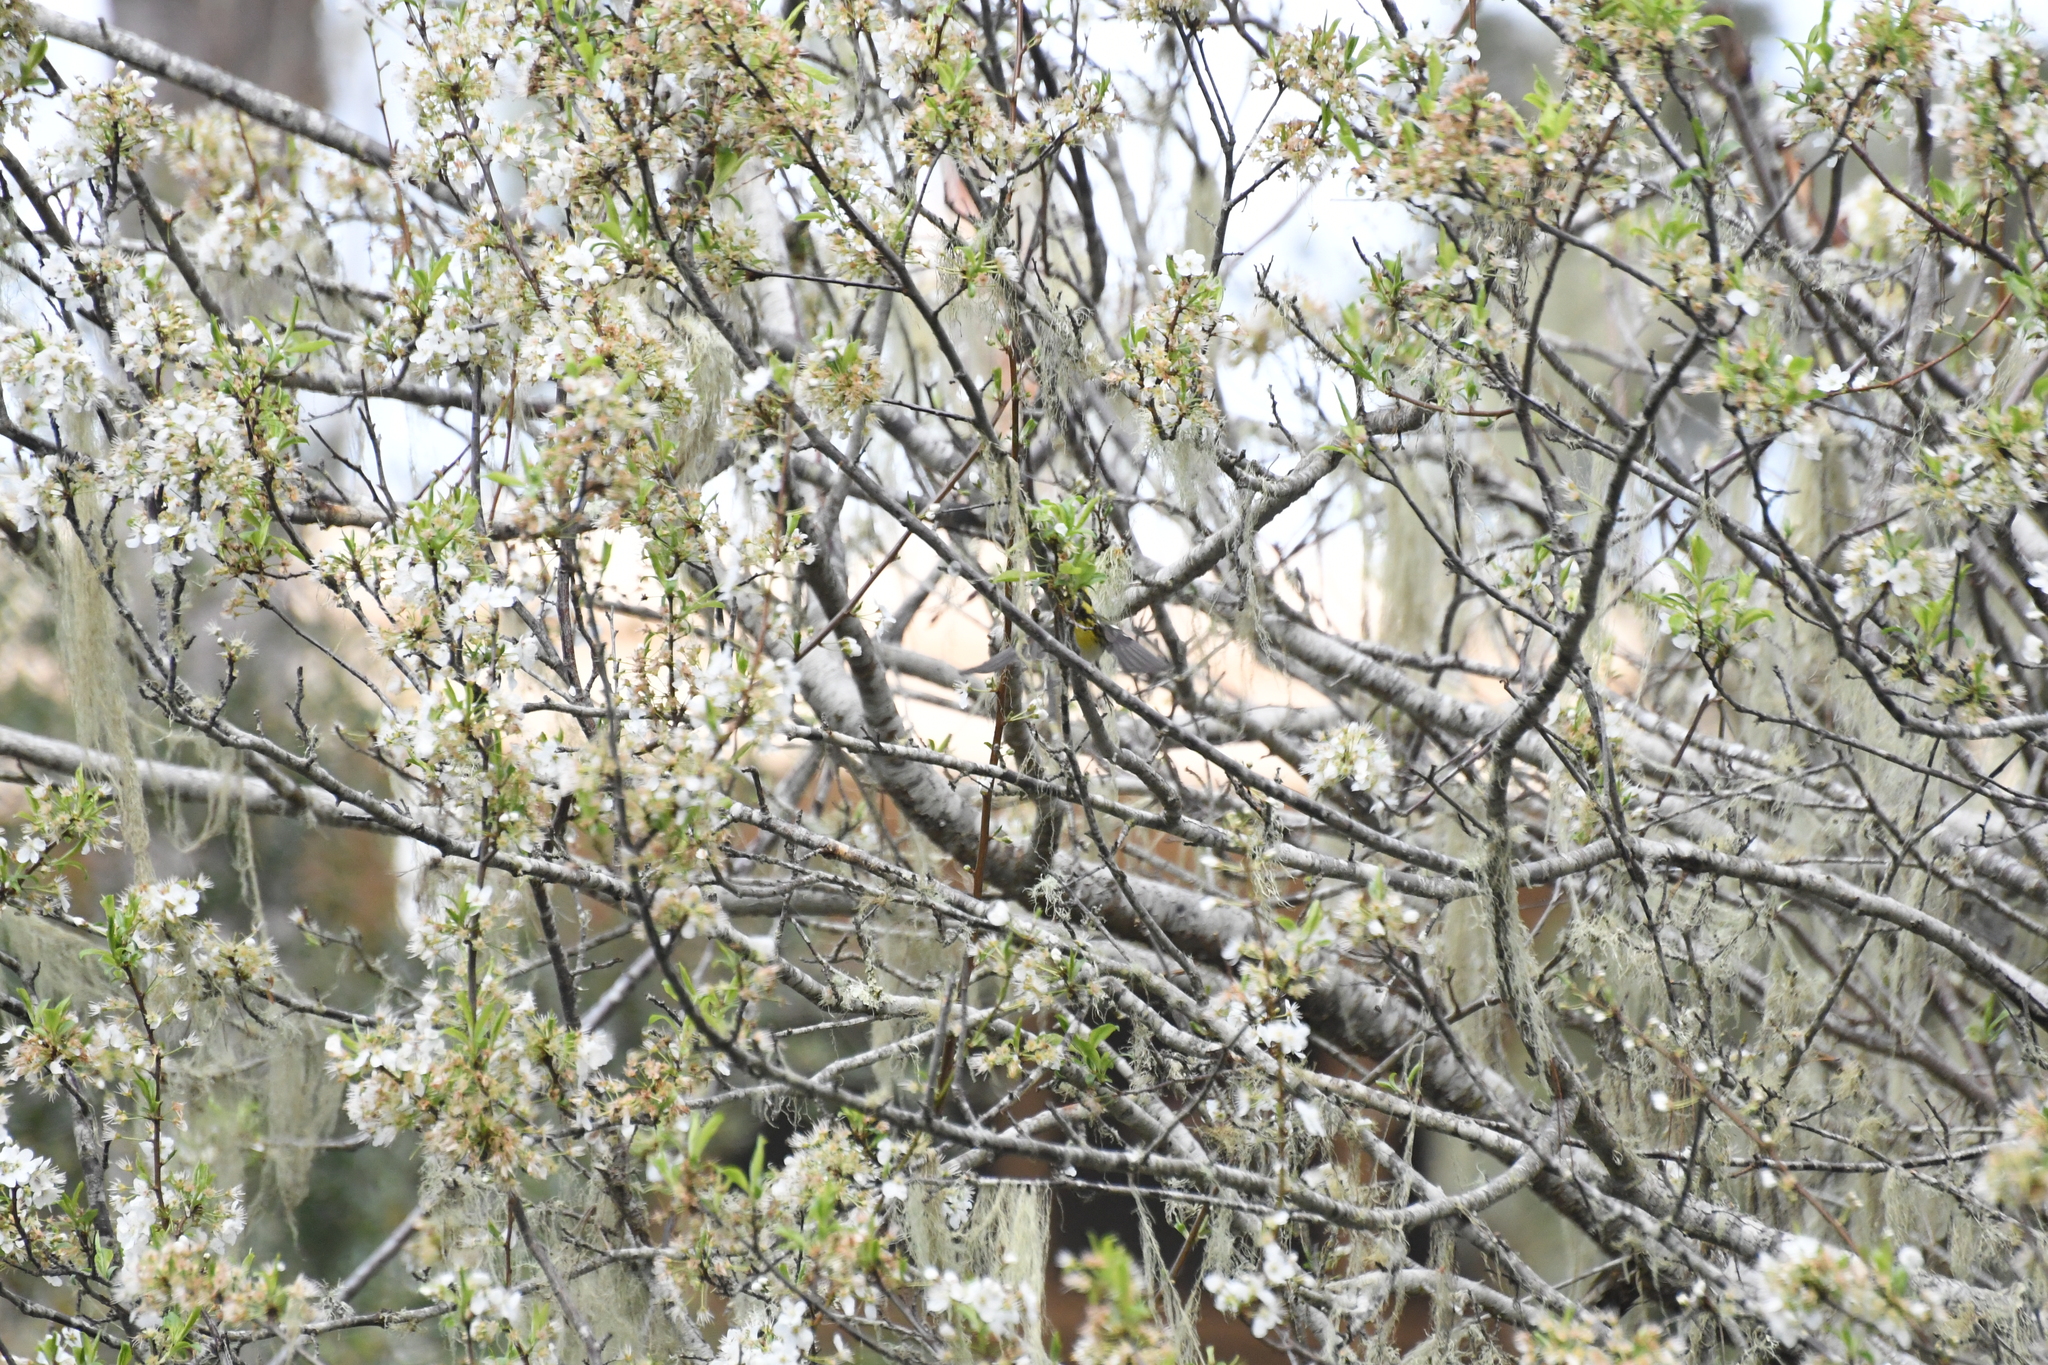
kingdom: Animalia
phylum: Chordata
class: Aves
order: Passeriformes
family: Parulidae
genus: Setophaga
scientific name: Setophaga townsendi
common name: Townsend's warbler
